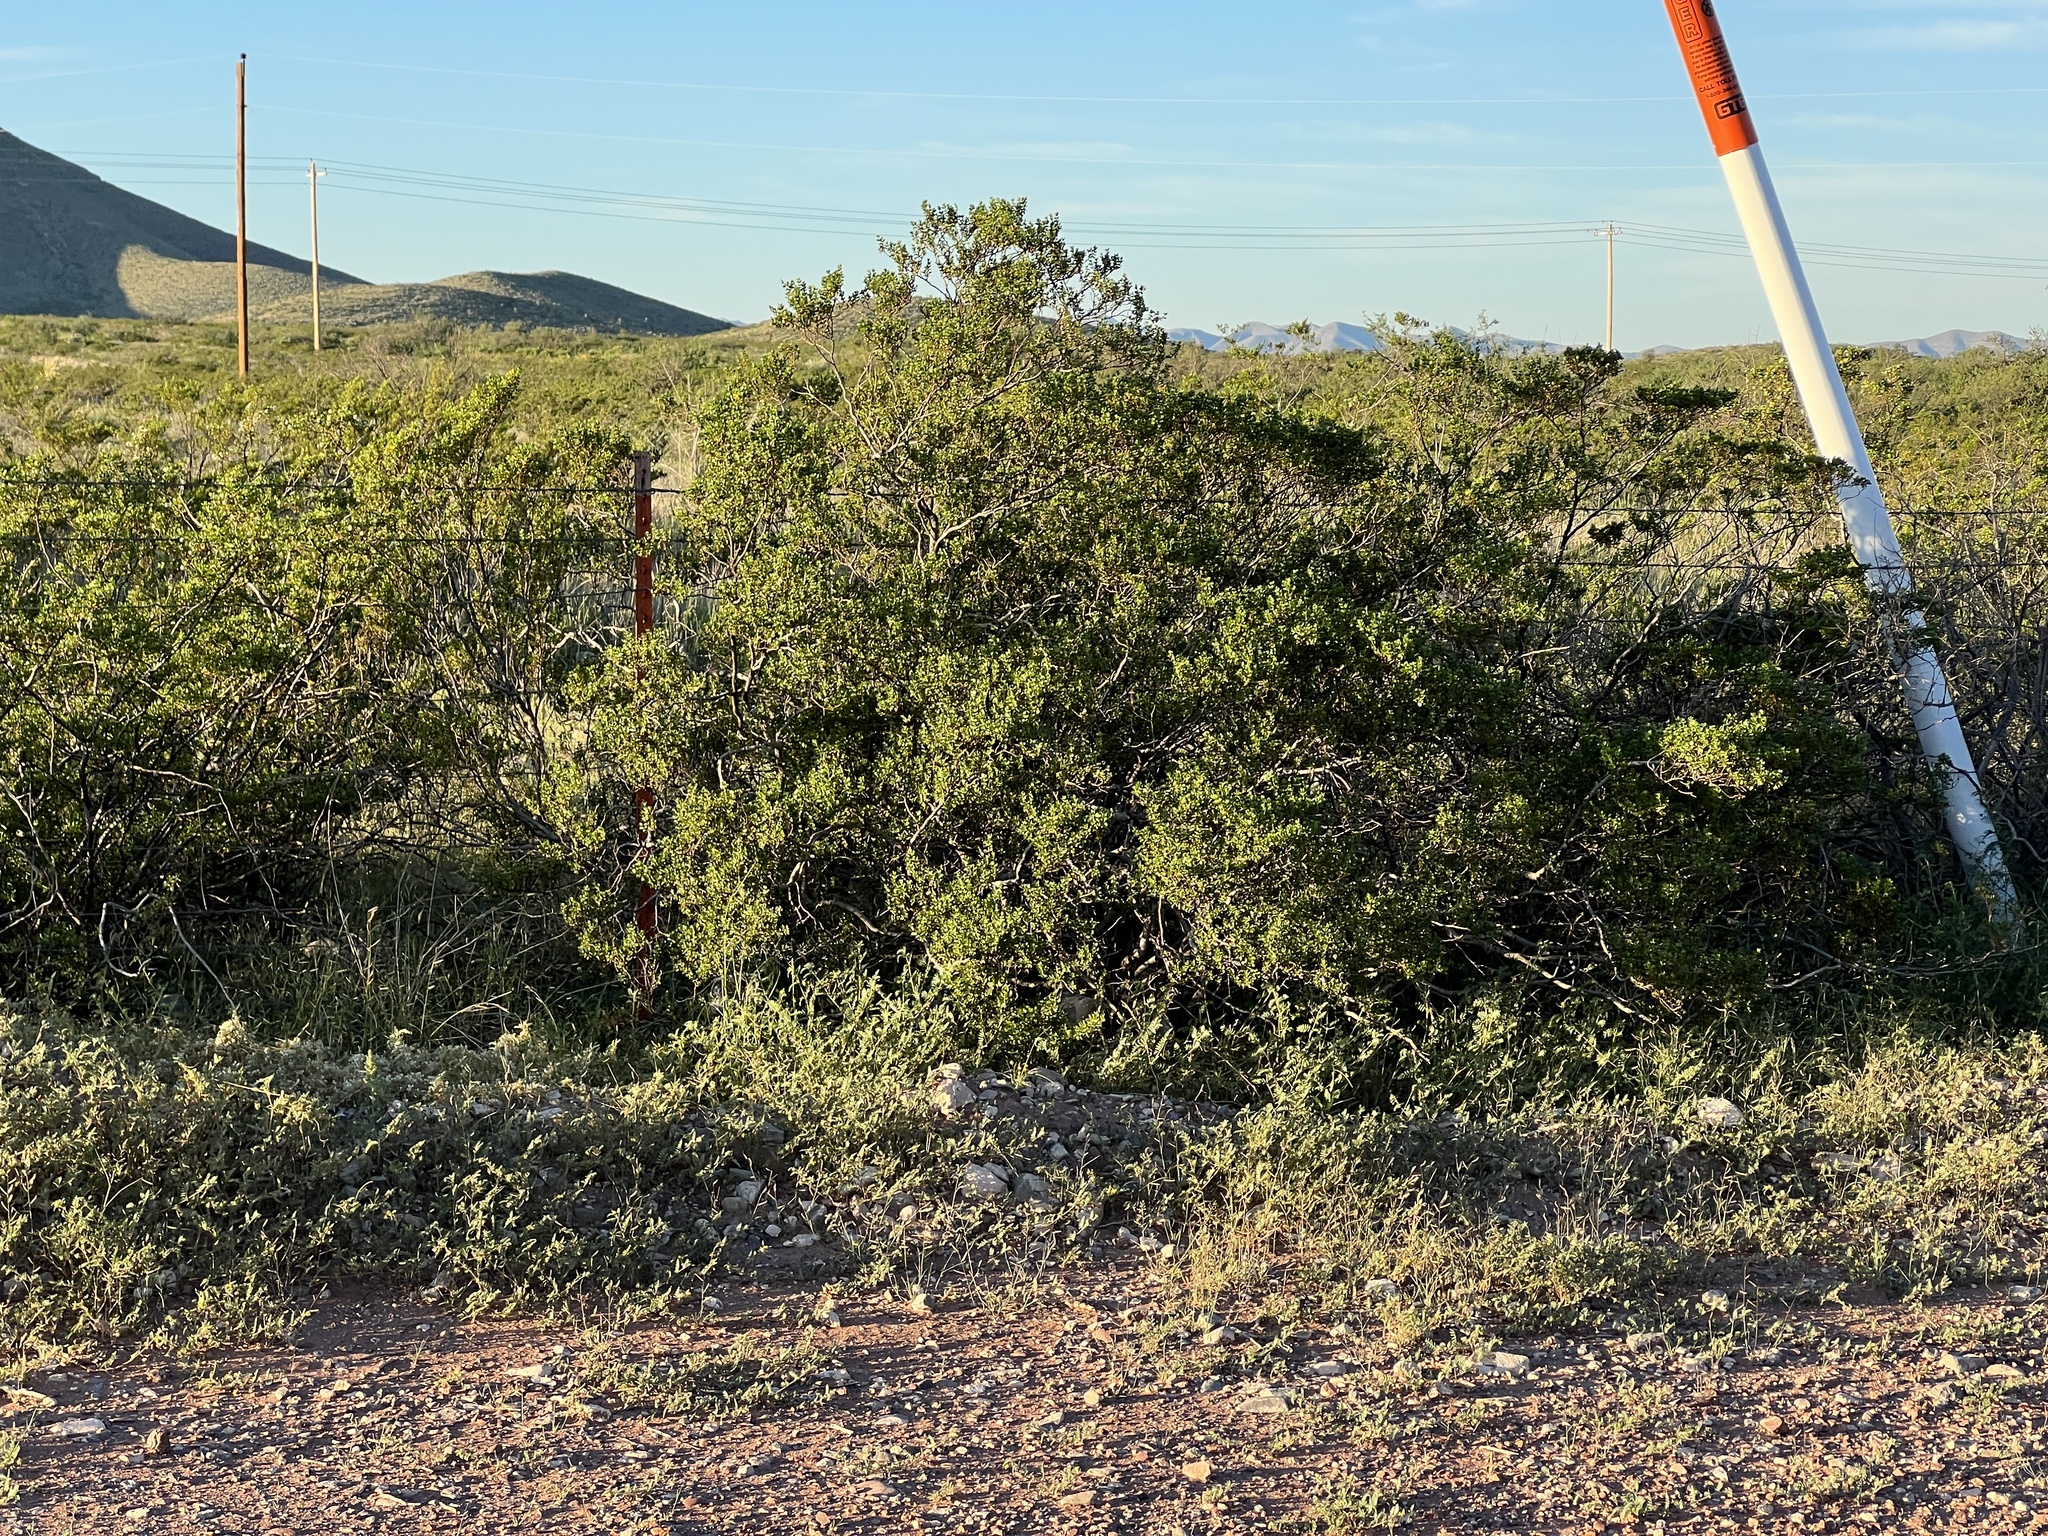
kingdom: Plantae
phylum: Tracheophyta
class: Magnoliopsida
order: Zygophyllales
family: Zygophyllaceae
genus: Larrea
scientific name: Larrea tridentata
